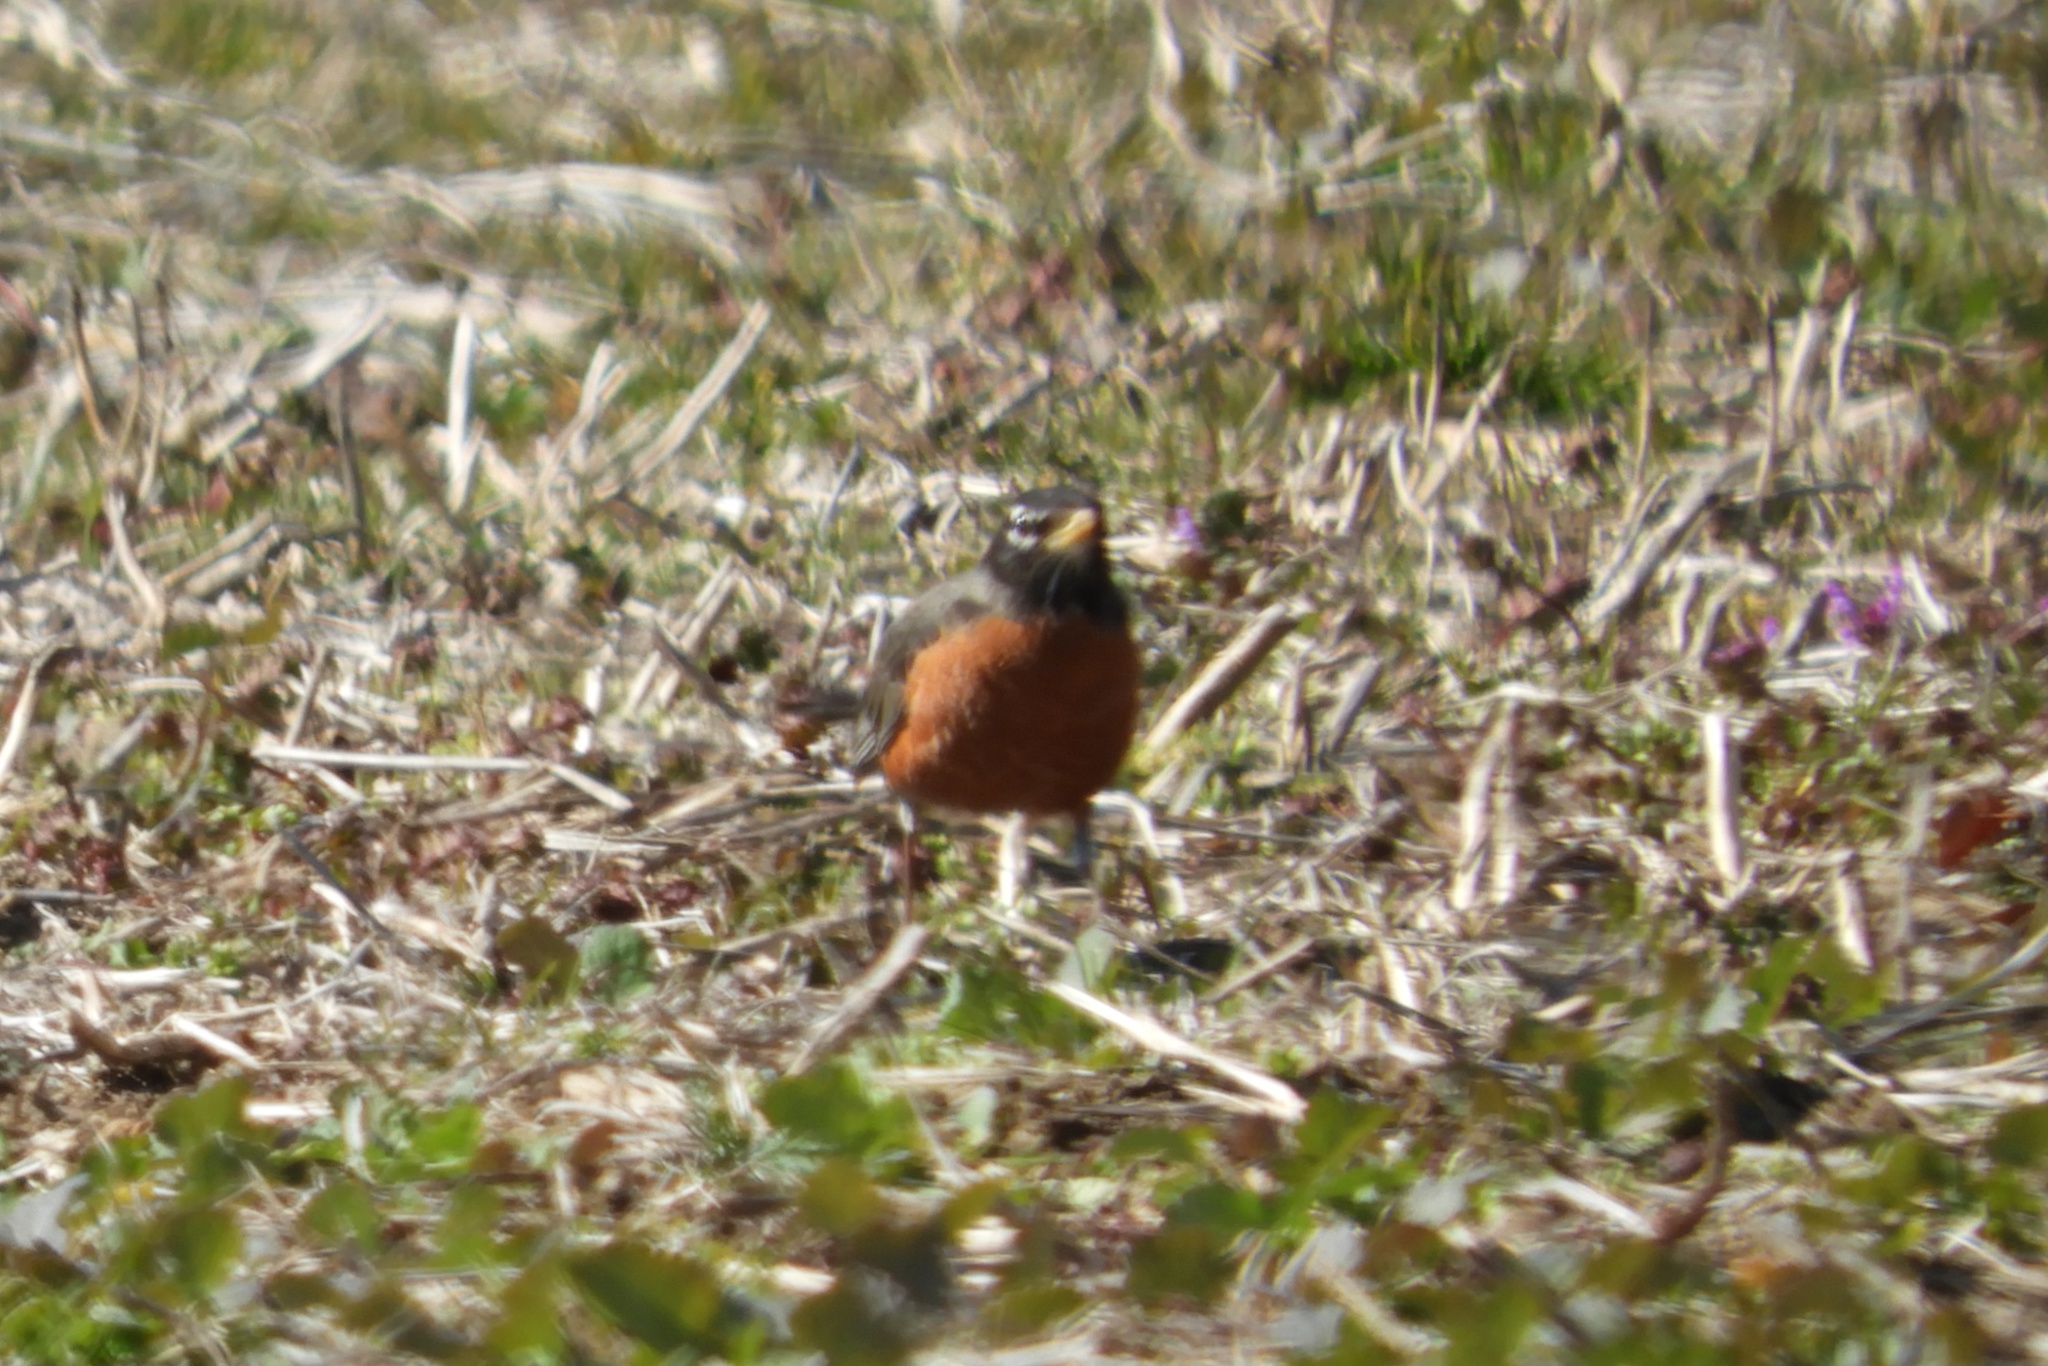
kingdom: Animalia
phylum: Chordata
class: Aves
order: Passeriformes
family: Turdidae
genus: Turdus
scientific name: Turdus migratorius
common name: American robin
